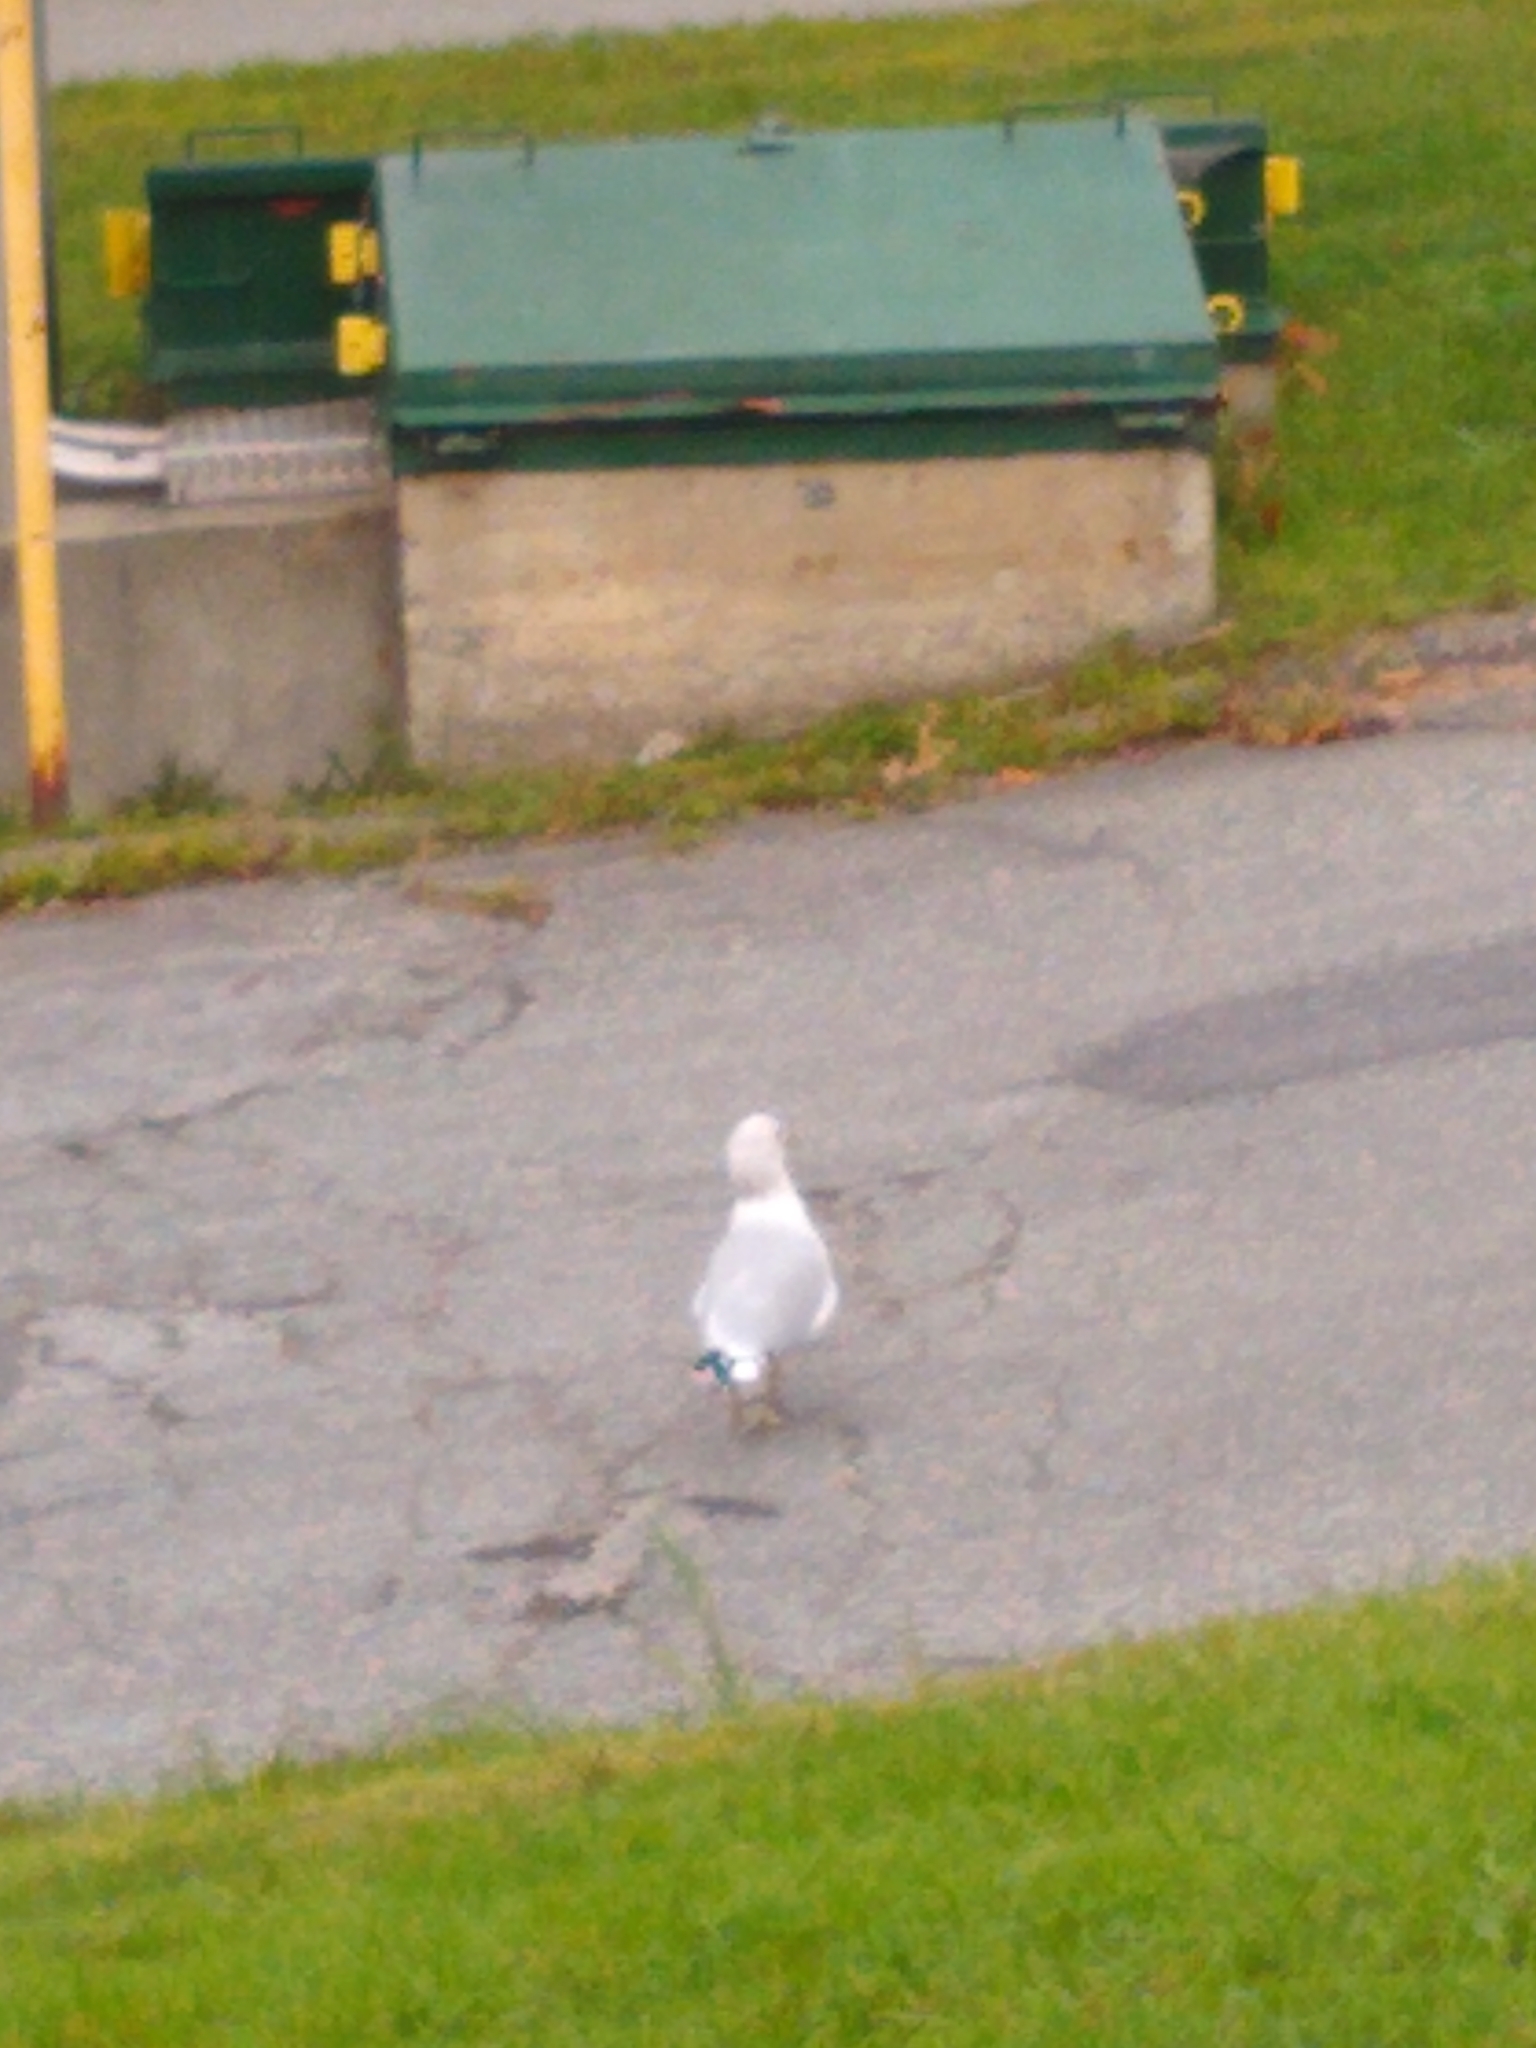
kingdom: Animalia
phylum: Chordata
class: Aves
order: Charadriiformes
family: Laridae
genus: Larus
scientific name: Larus delawarensis
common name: Ring-billed gull
